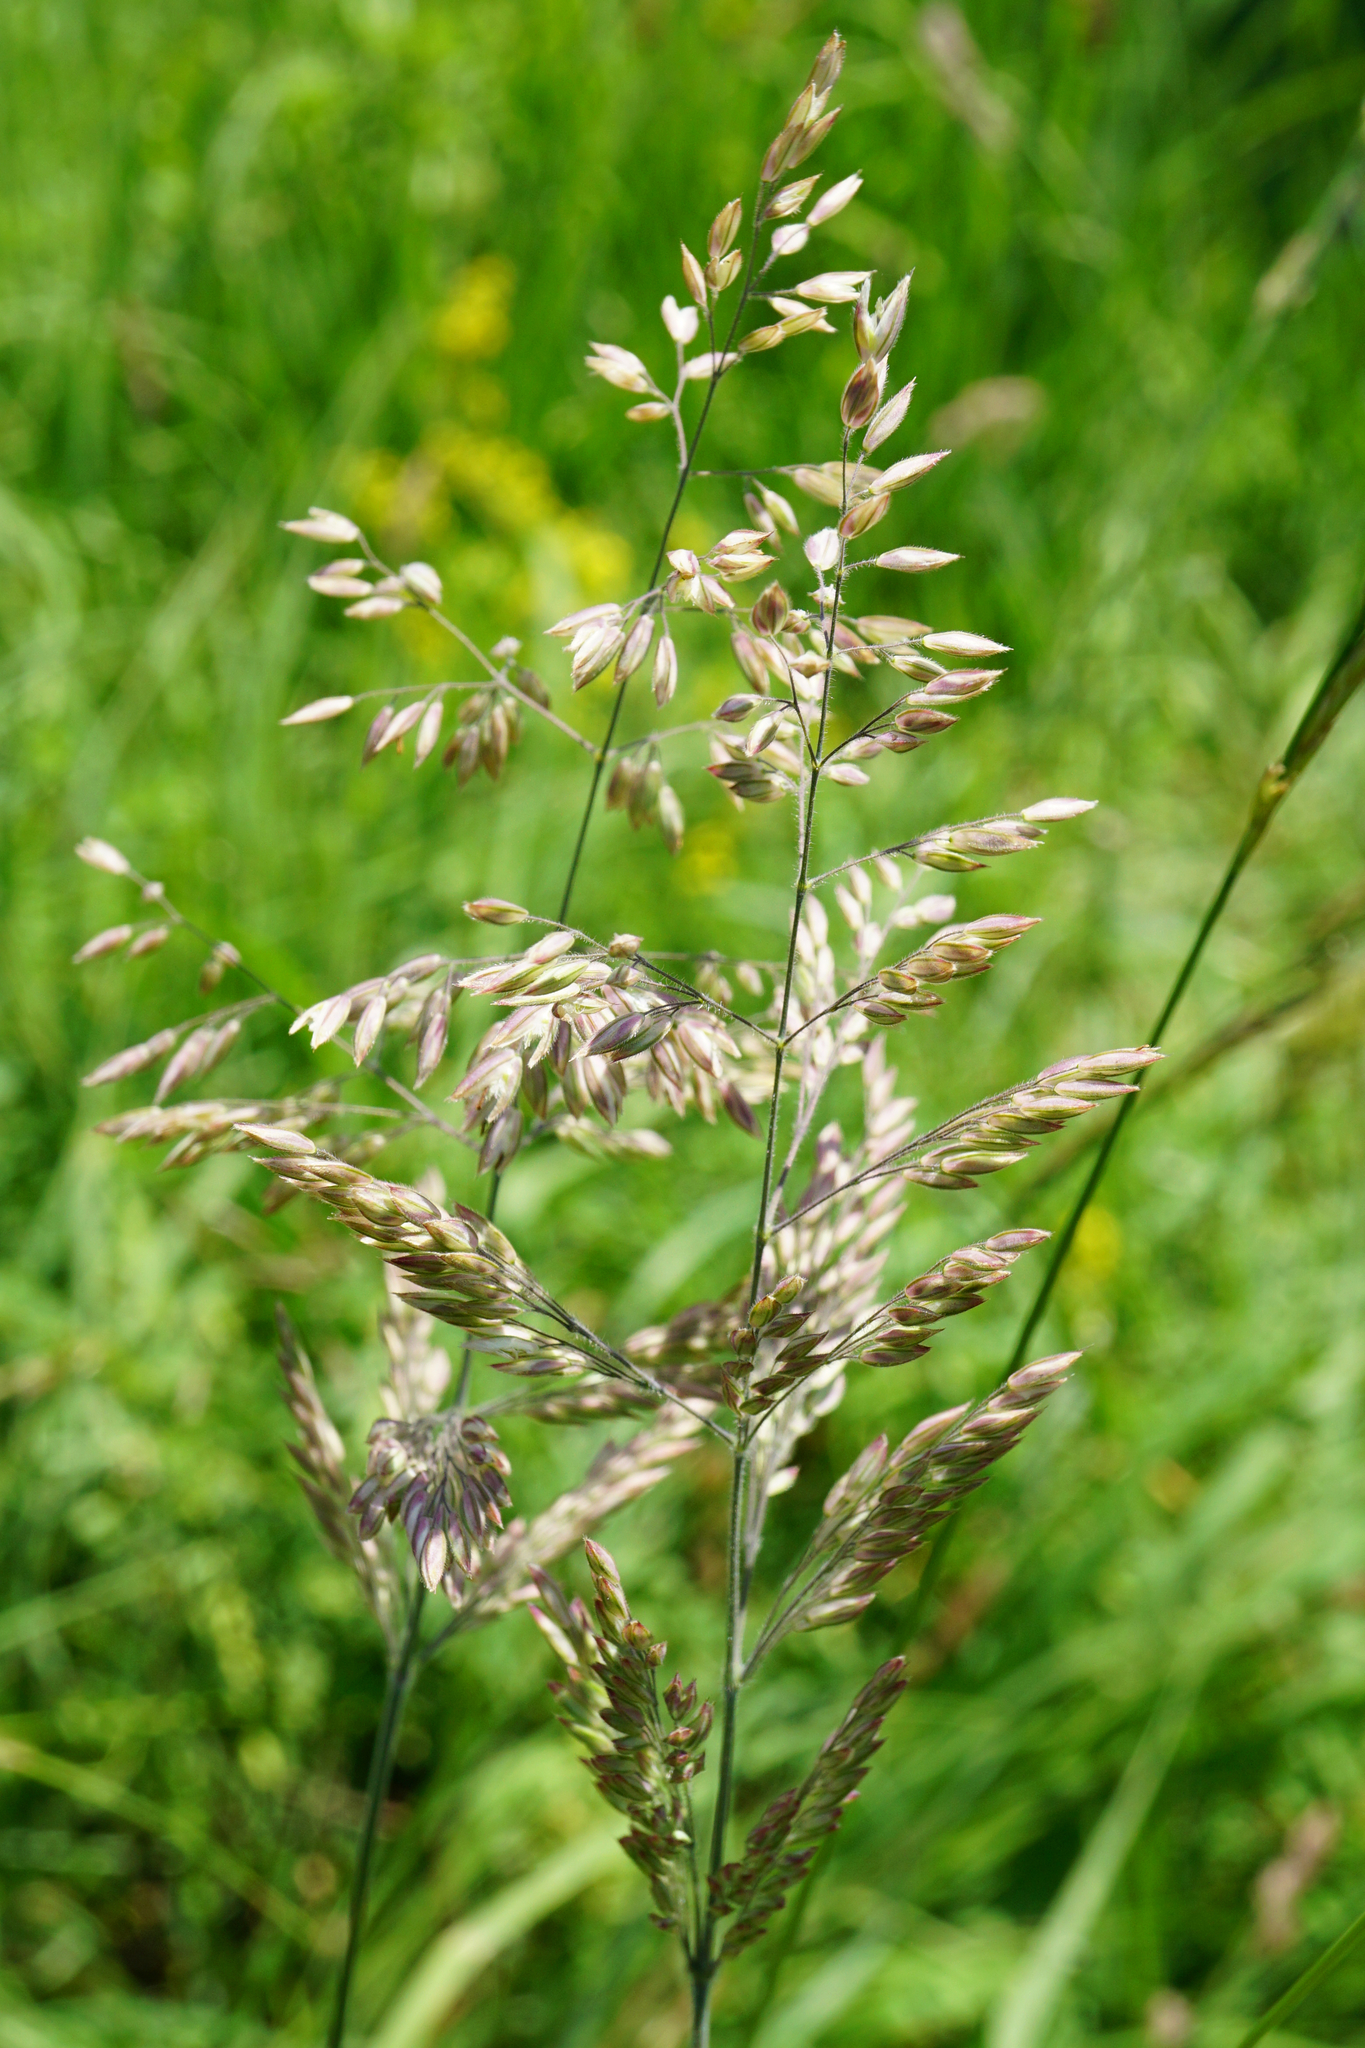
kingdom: Plantae
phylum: Tracheophyta
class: Liliopsida
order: Poales
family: Poaceae
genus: Holcus
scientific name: Holcus lanatus
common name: Yorkshire-fog
